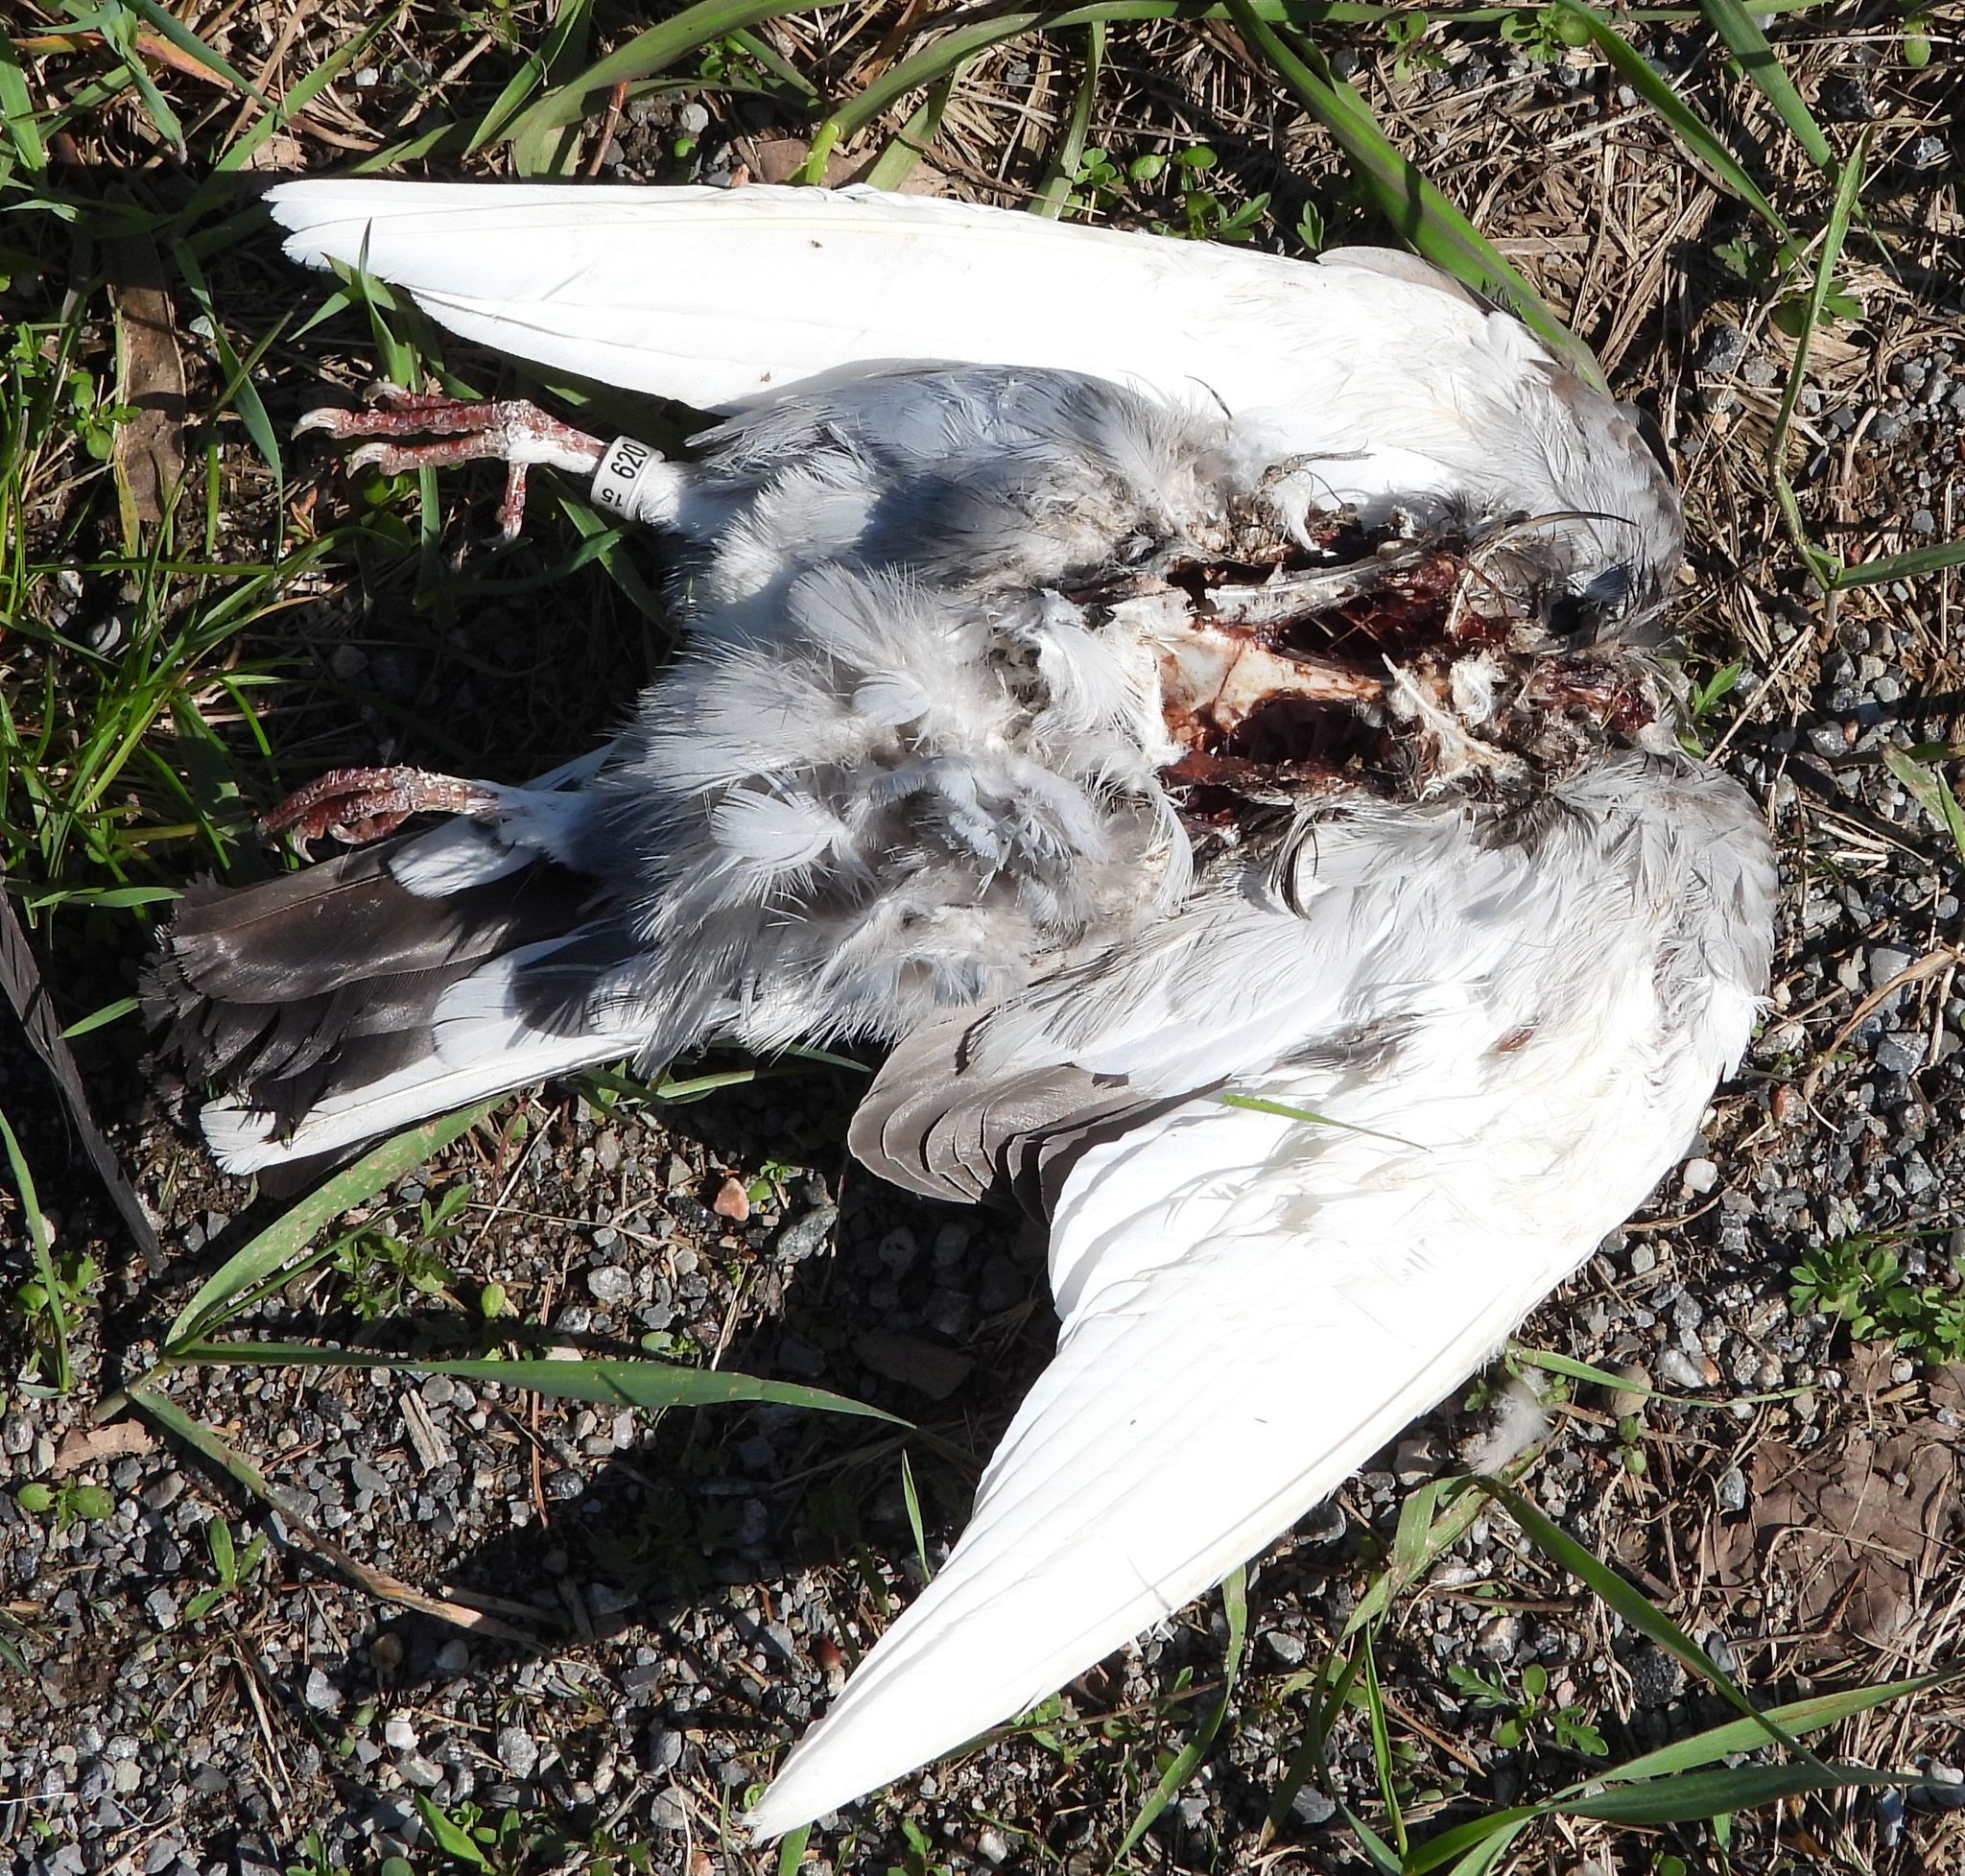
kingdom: Animalia
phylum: Chordata
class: Aves
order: Columbiformes
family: Columbidae
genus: Columba
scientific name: Columba livia
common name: Rock pigeon
